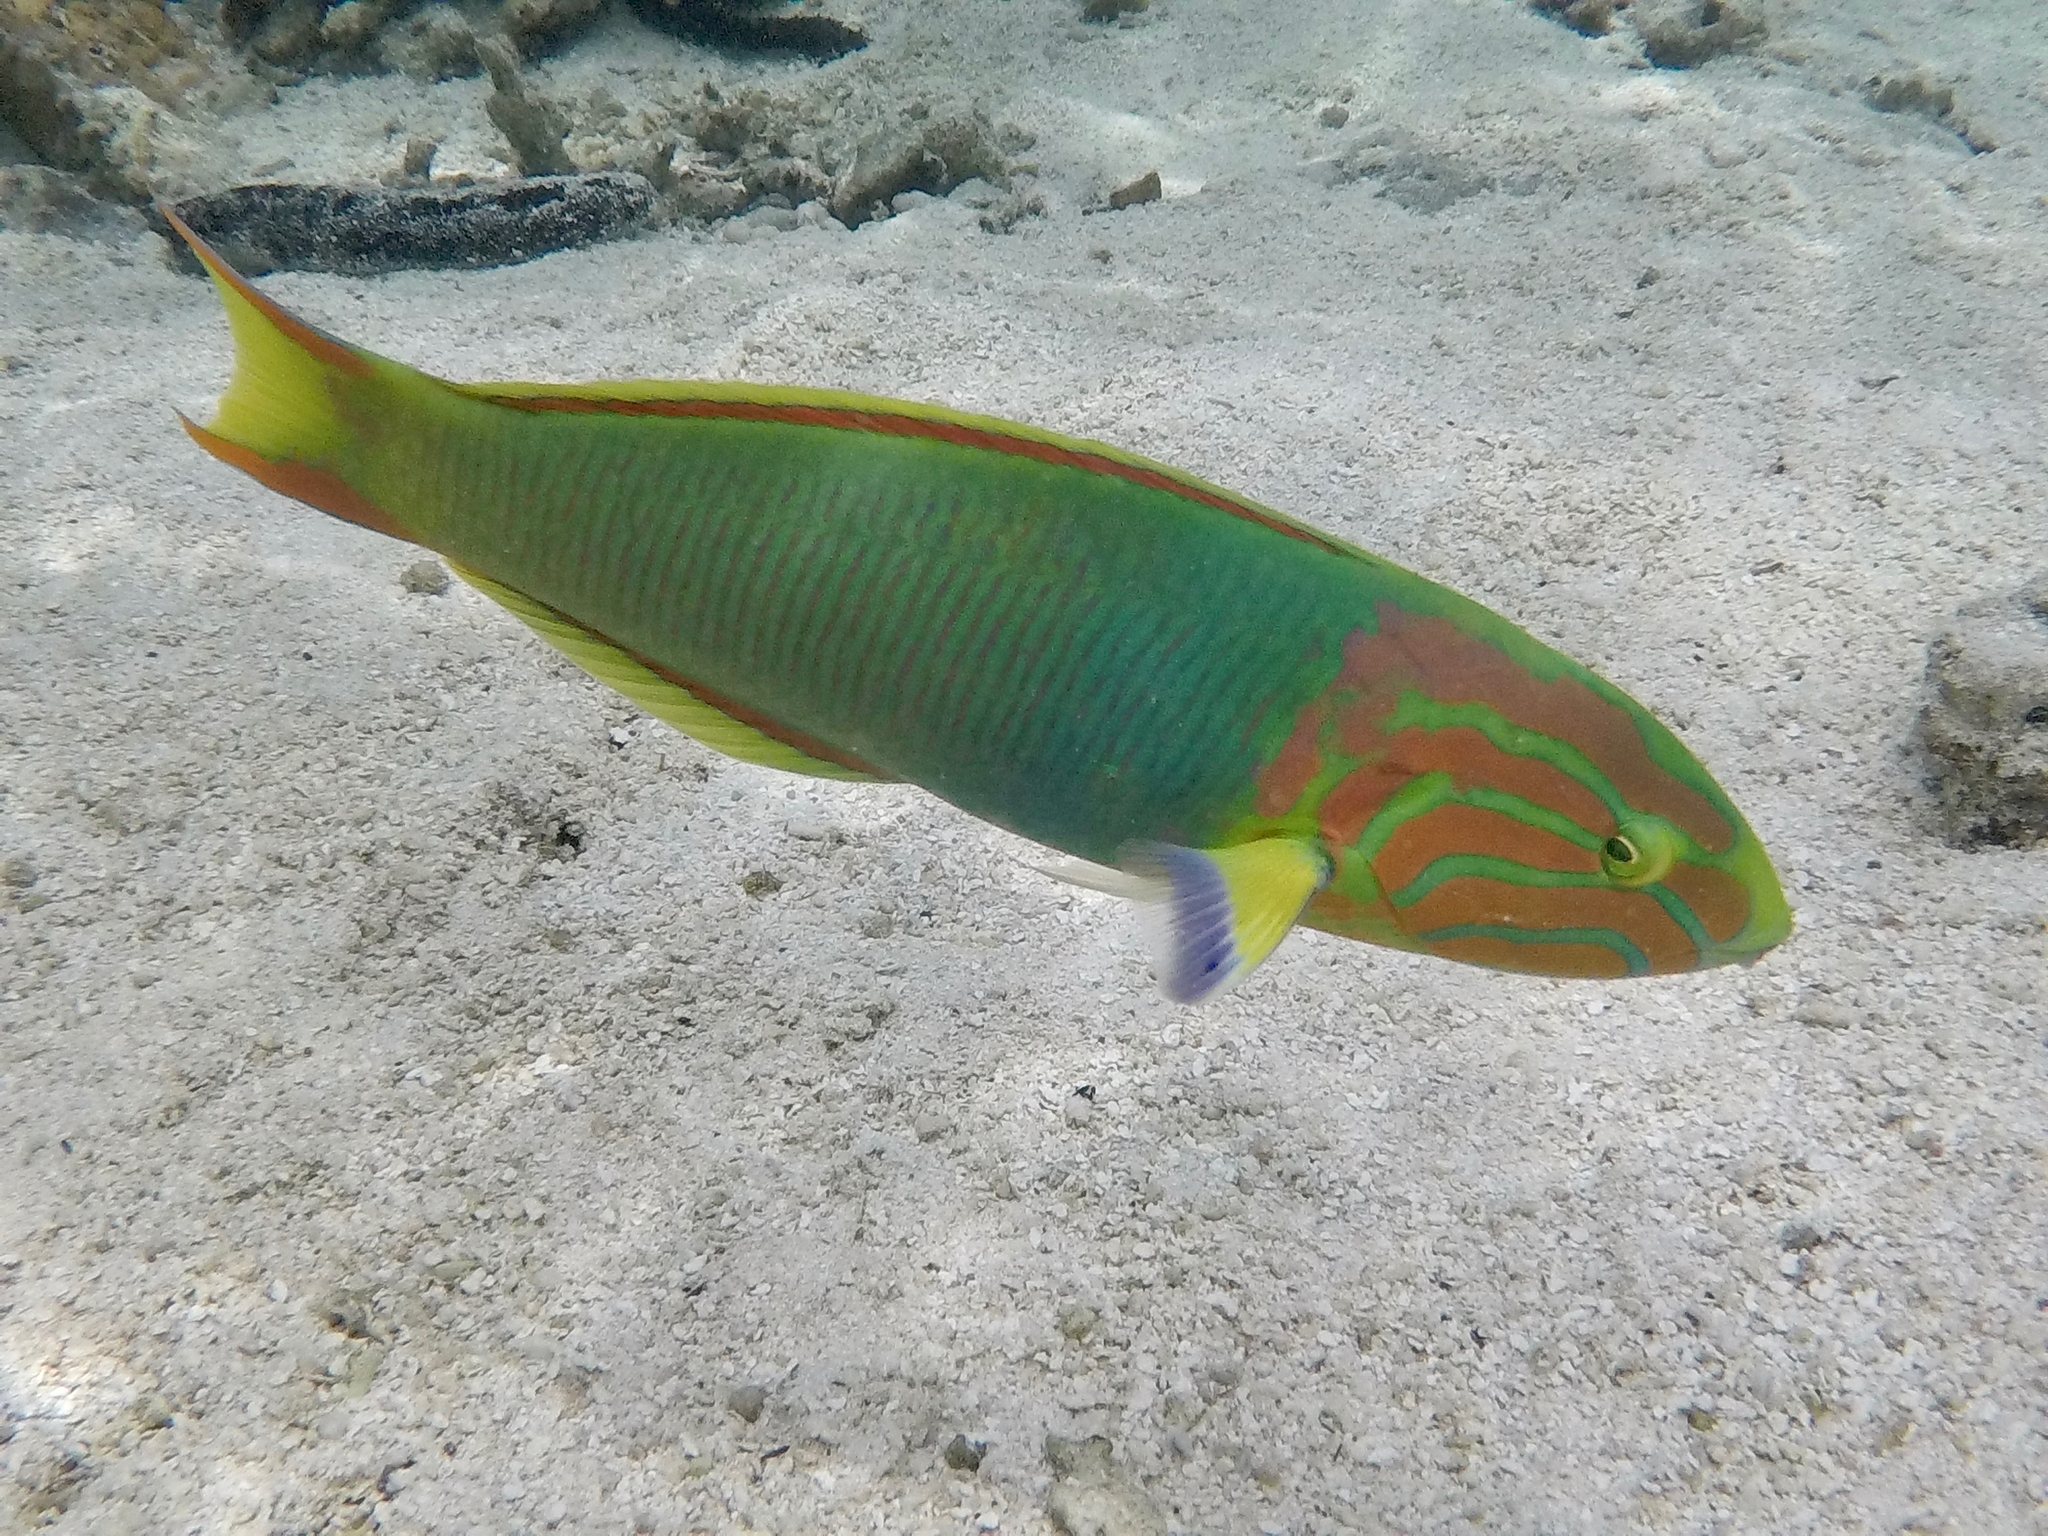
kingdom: Animalia
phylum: Chordata
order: Perciformes
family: Labridae
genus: Thalassoma
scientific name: Thalassoma lutescens
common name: Green moon wrasse
